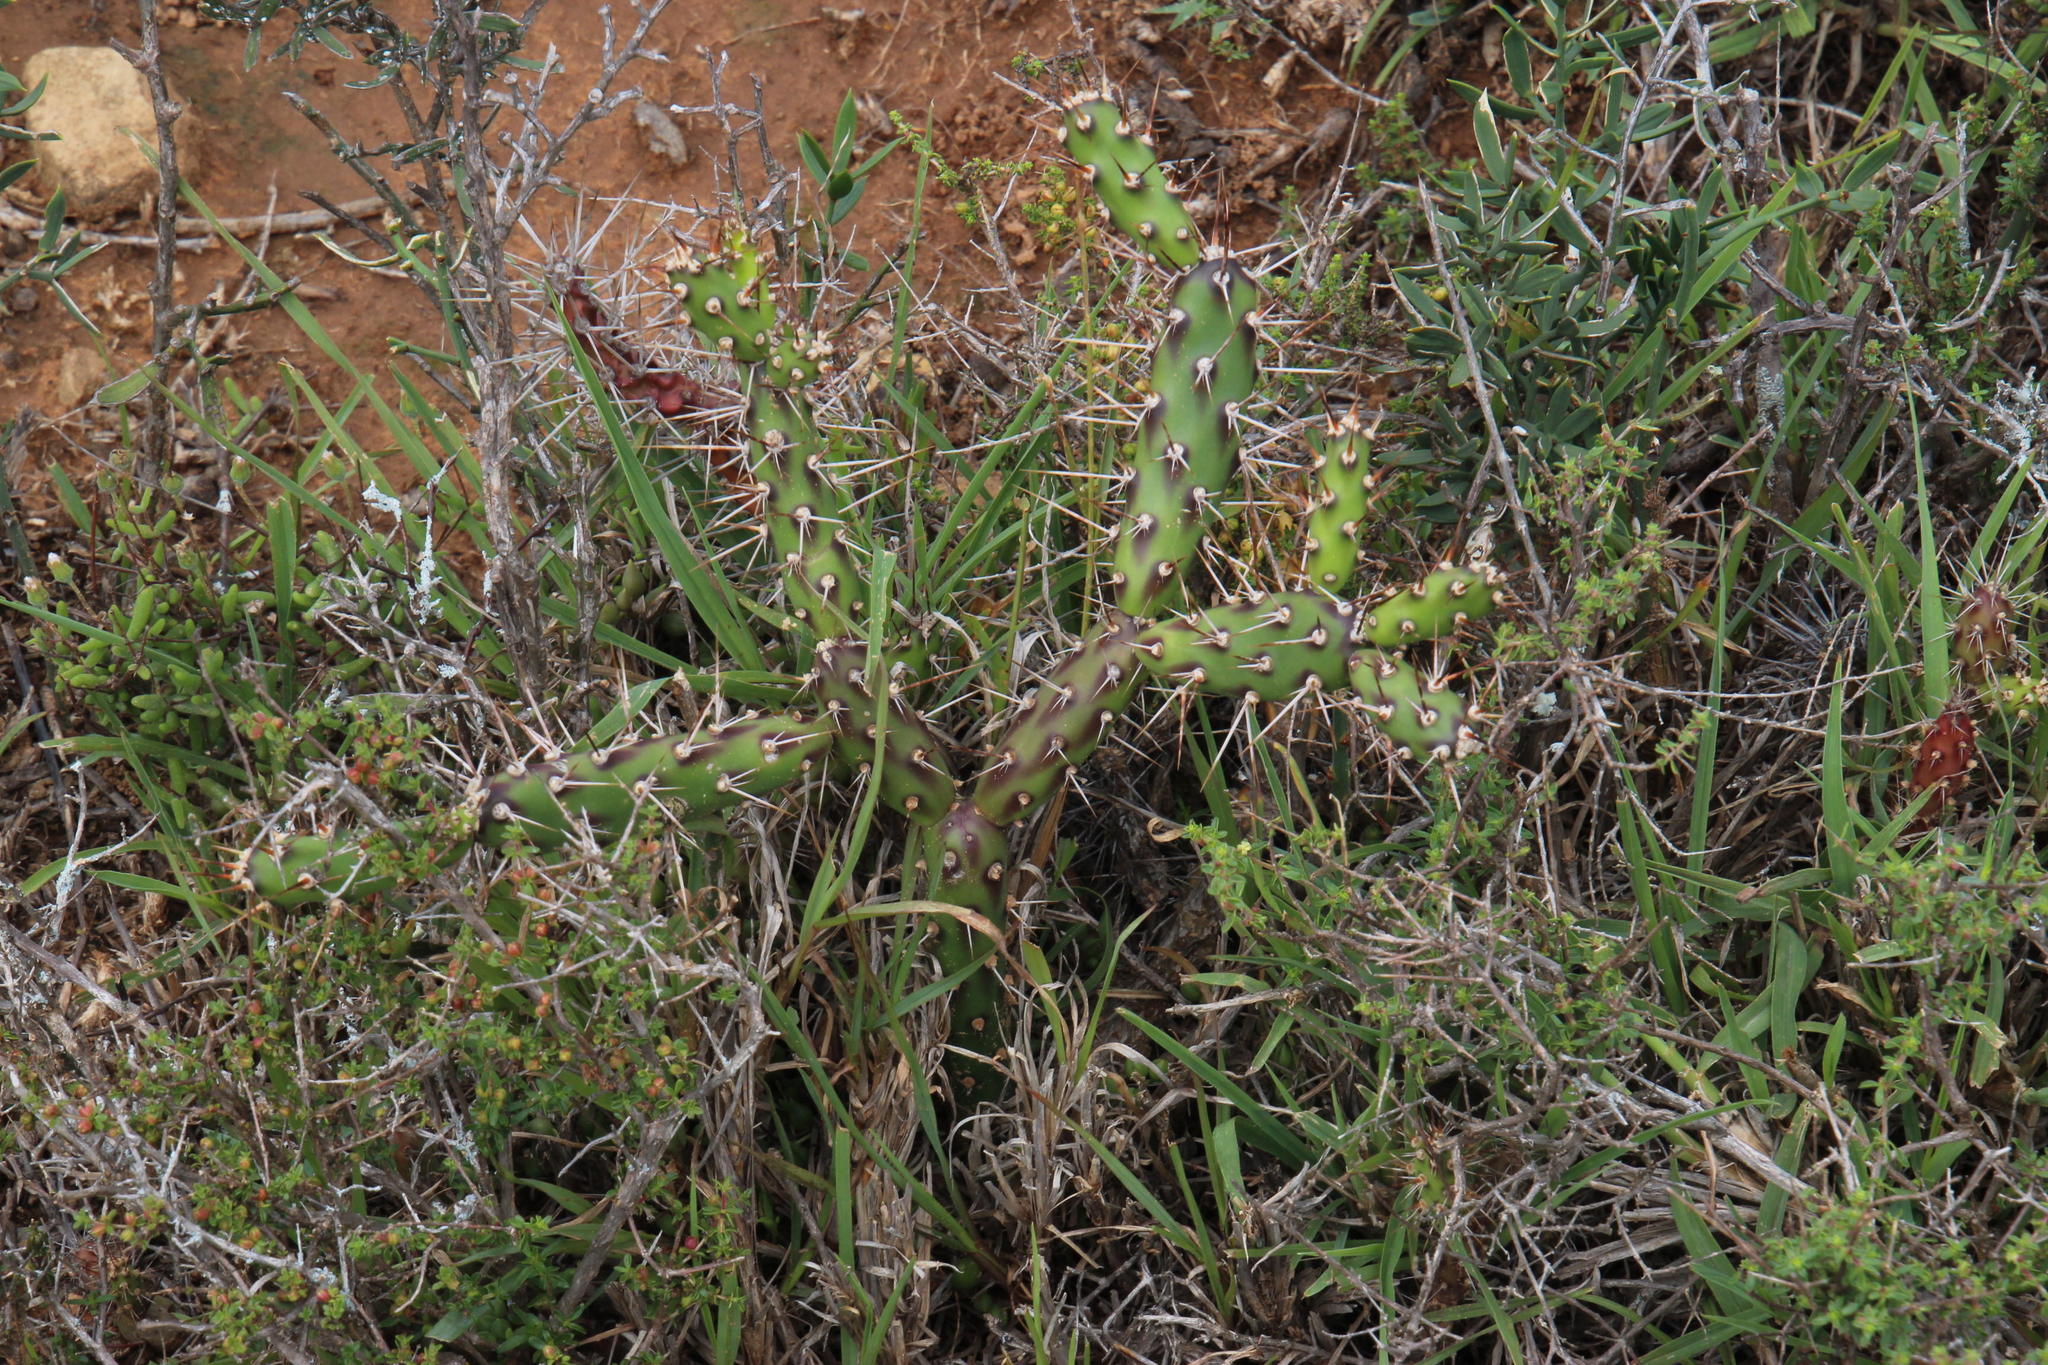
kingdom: Plantae
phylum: Tracheophyta
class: Magnoliopsida
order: Caryophyllales
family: Cactaceae
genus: Opuntia
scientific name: Opuntia aurantiaca
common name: Jointed pricklypear
